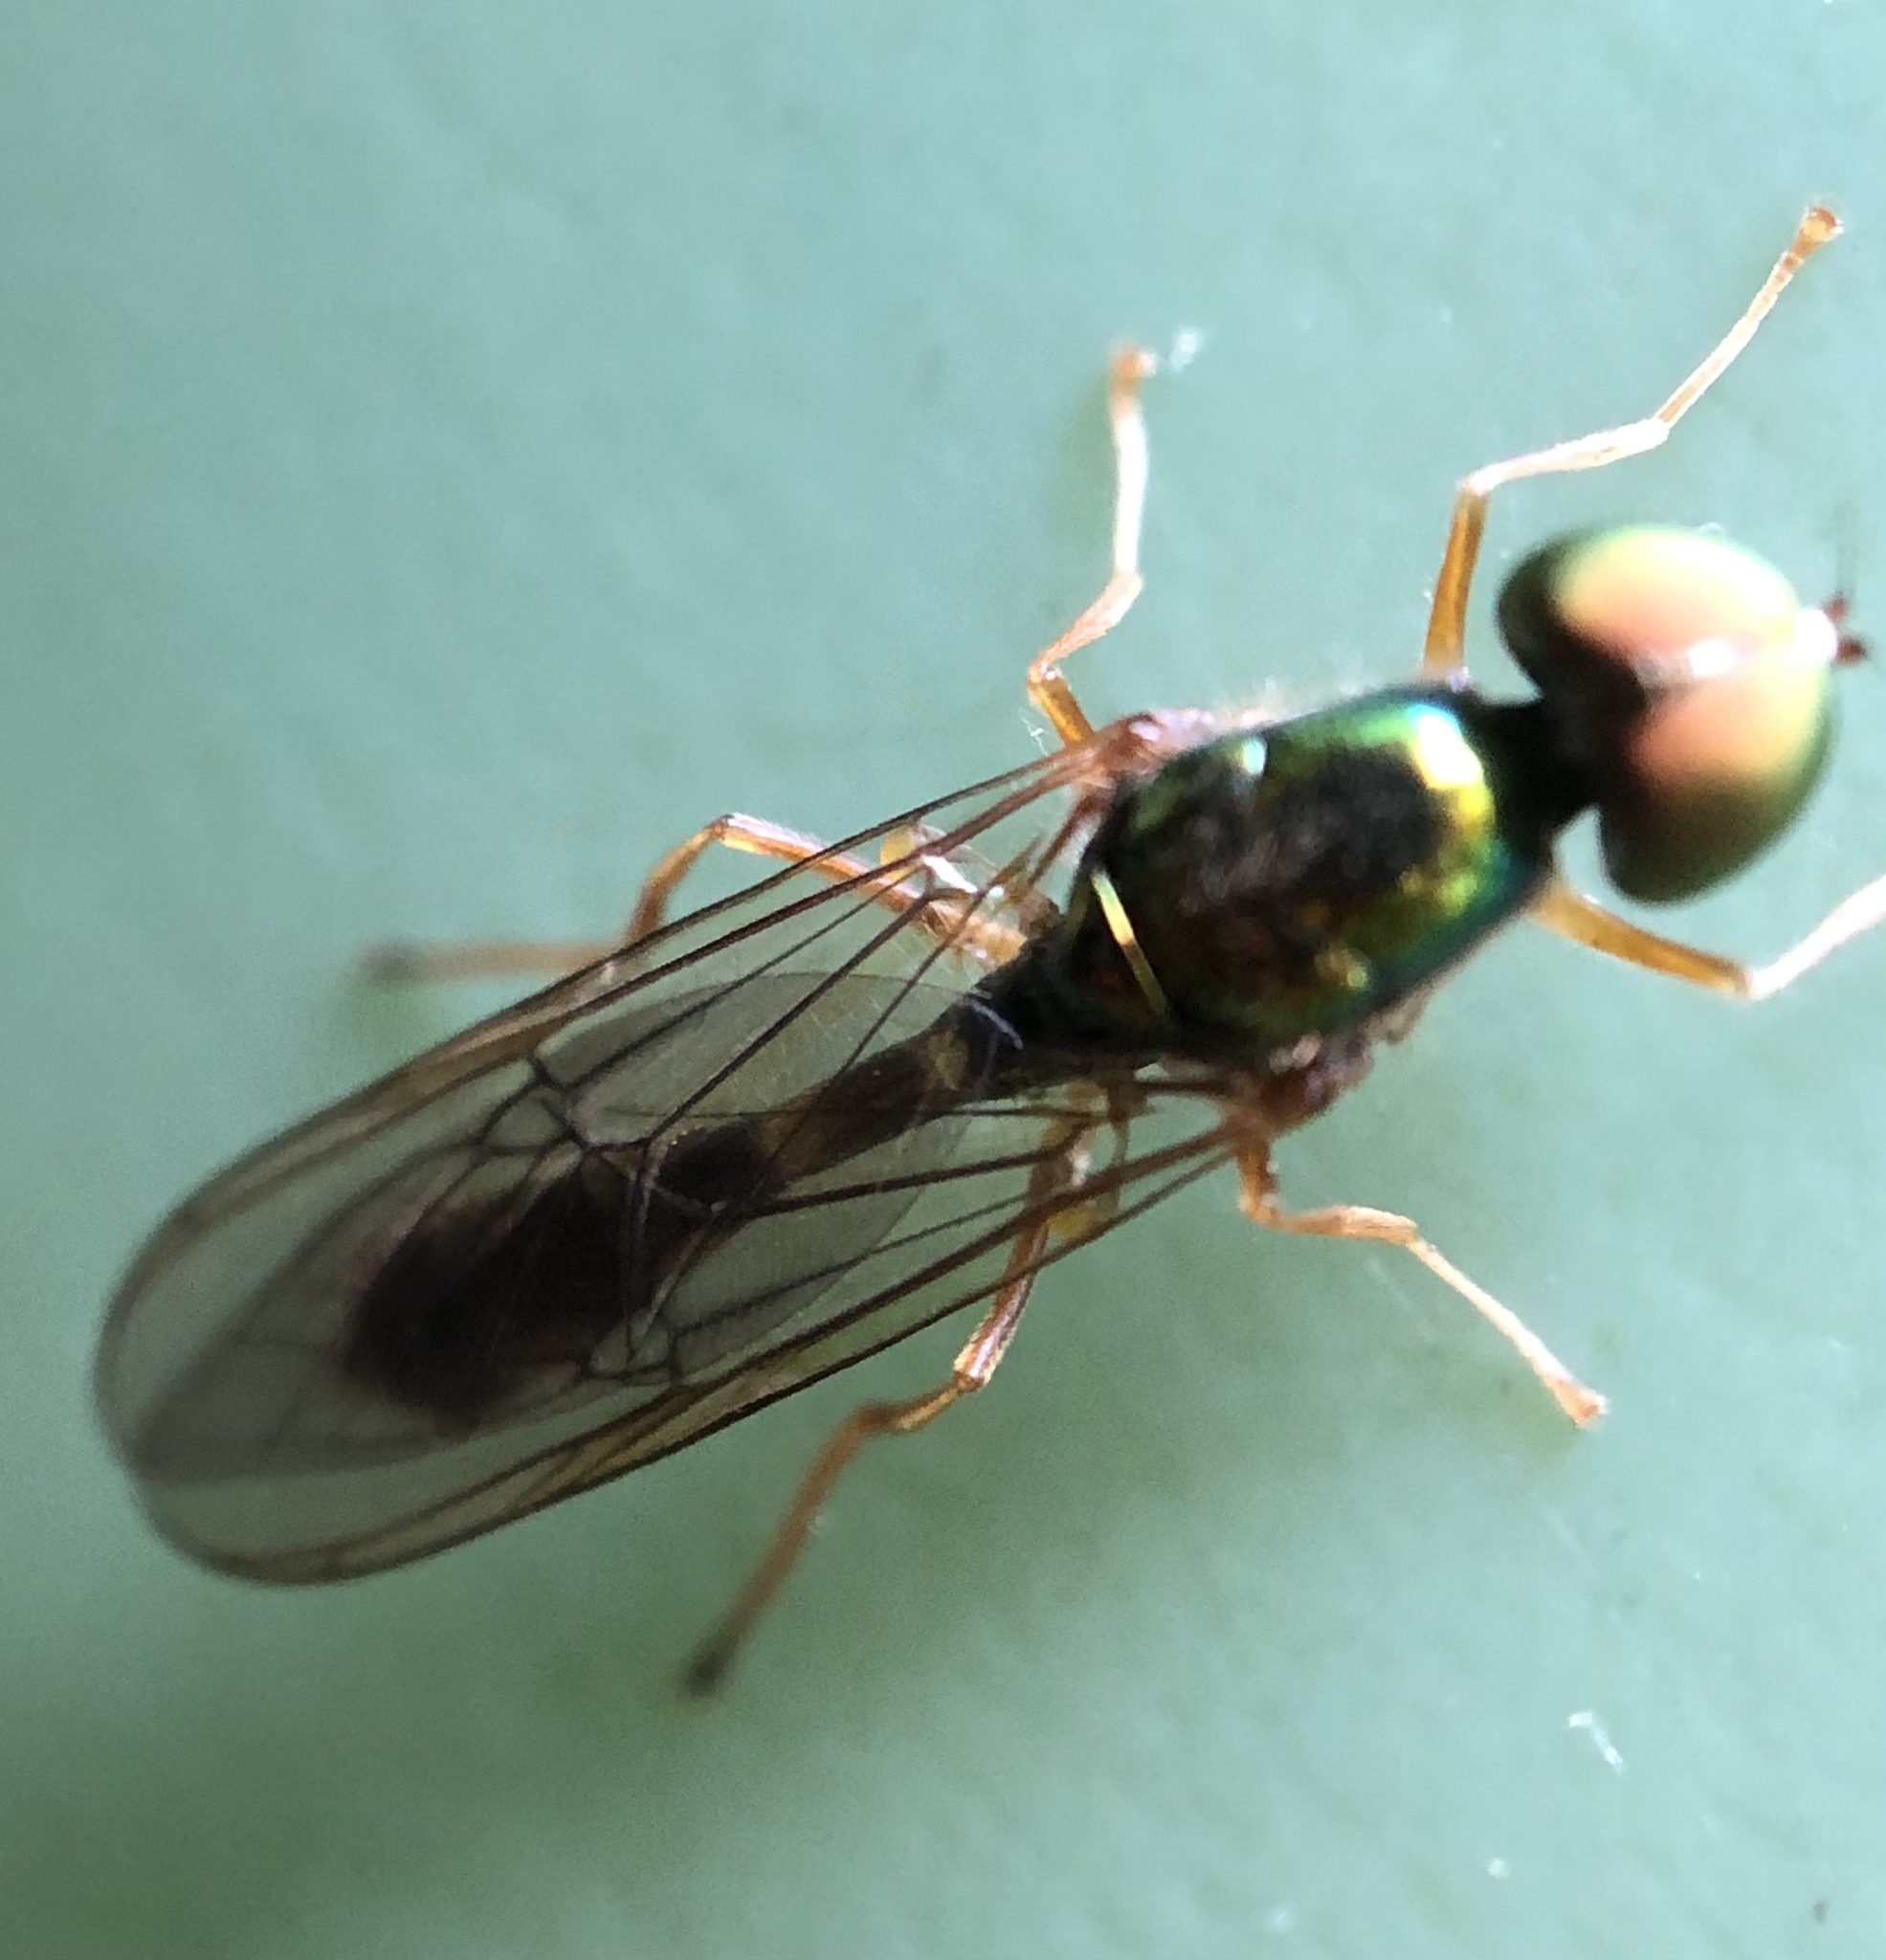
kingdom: Animalia
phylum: Arthropoda
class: Insecta
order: Diptera
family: Stratiomyidae
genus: Sargus
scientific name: Sargus fasciatus
